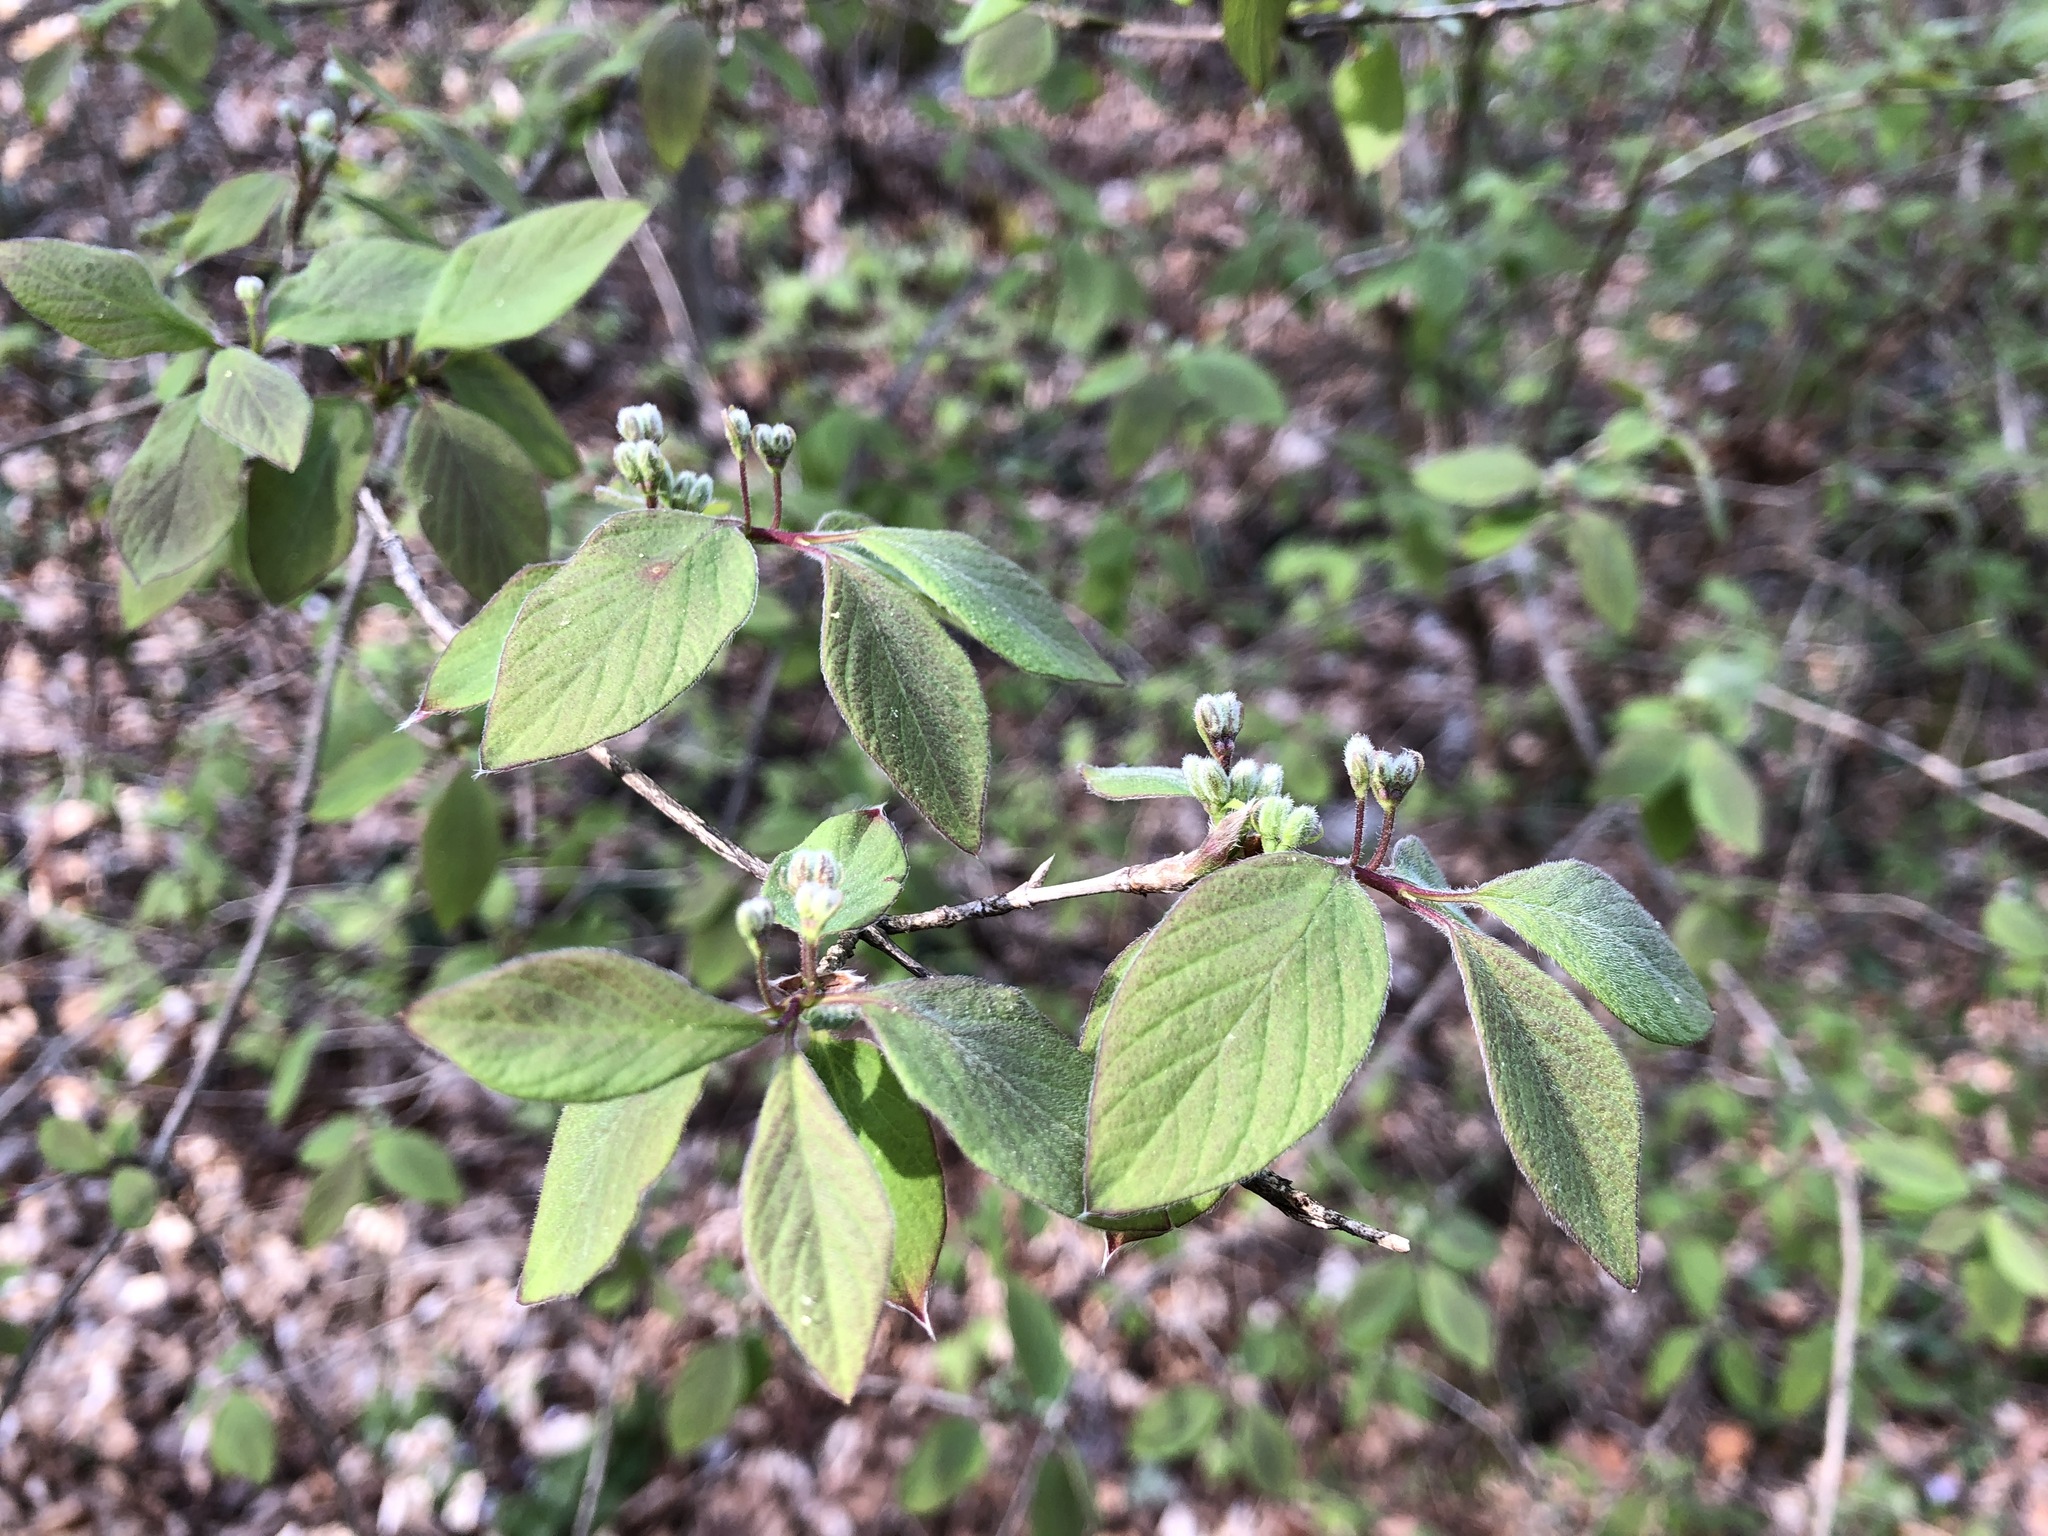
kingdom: Plantae
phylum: Tracheophyta
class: Magnoliopsida
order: Dipsacales
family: Caprifoliaceae
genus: Lonicera
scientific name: Lonicera xylosteum
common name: Fly honeysuckle
